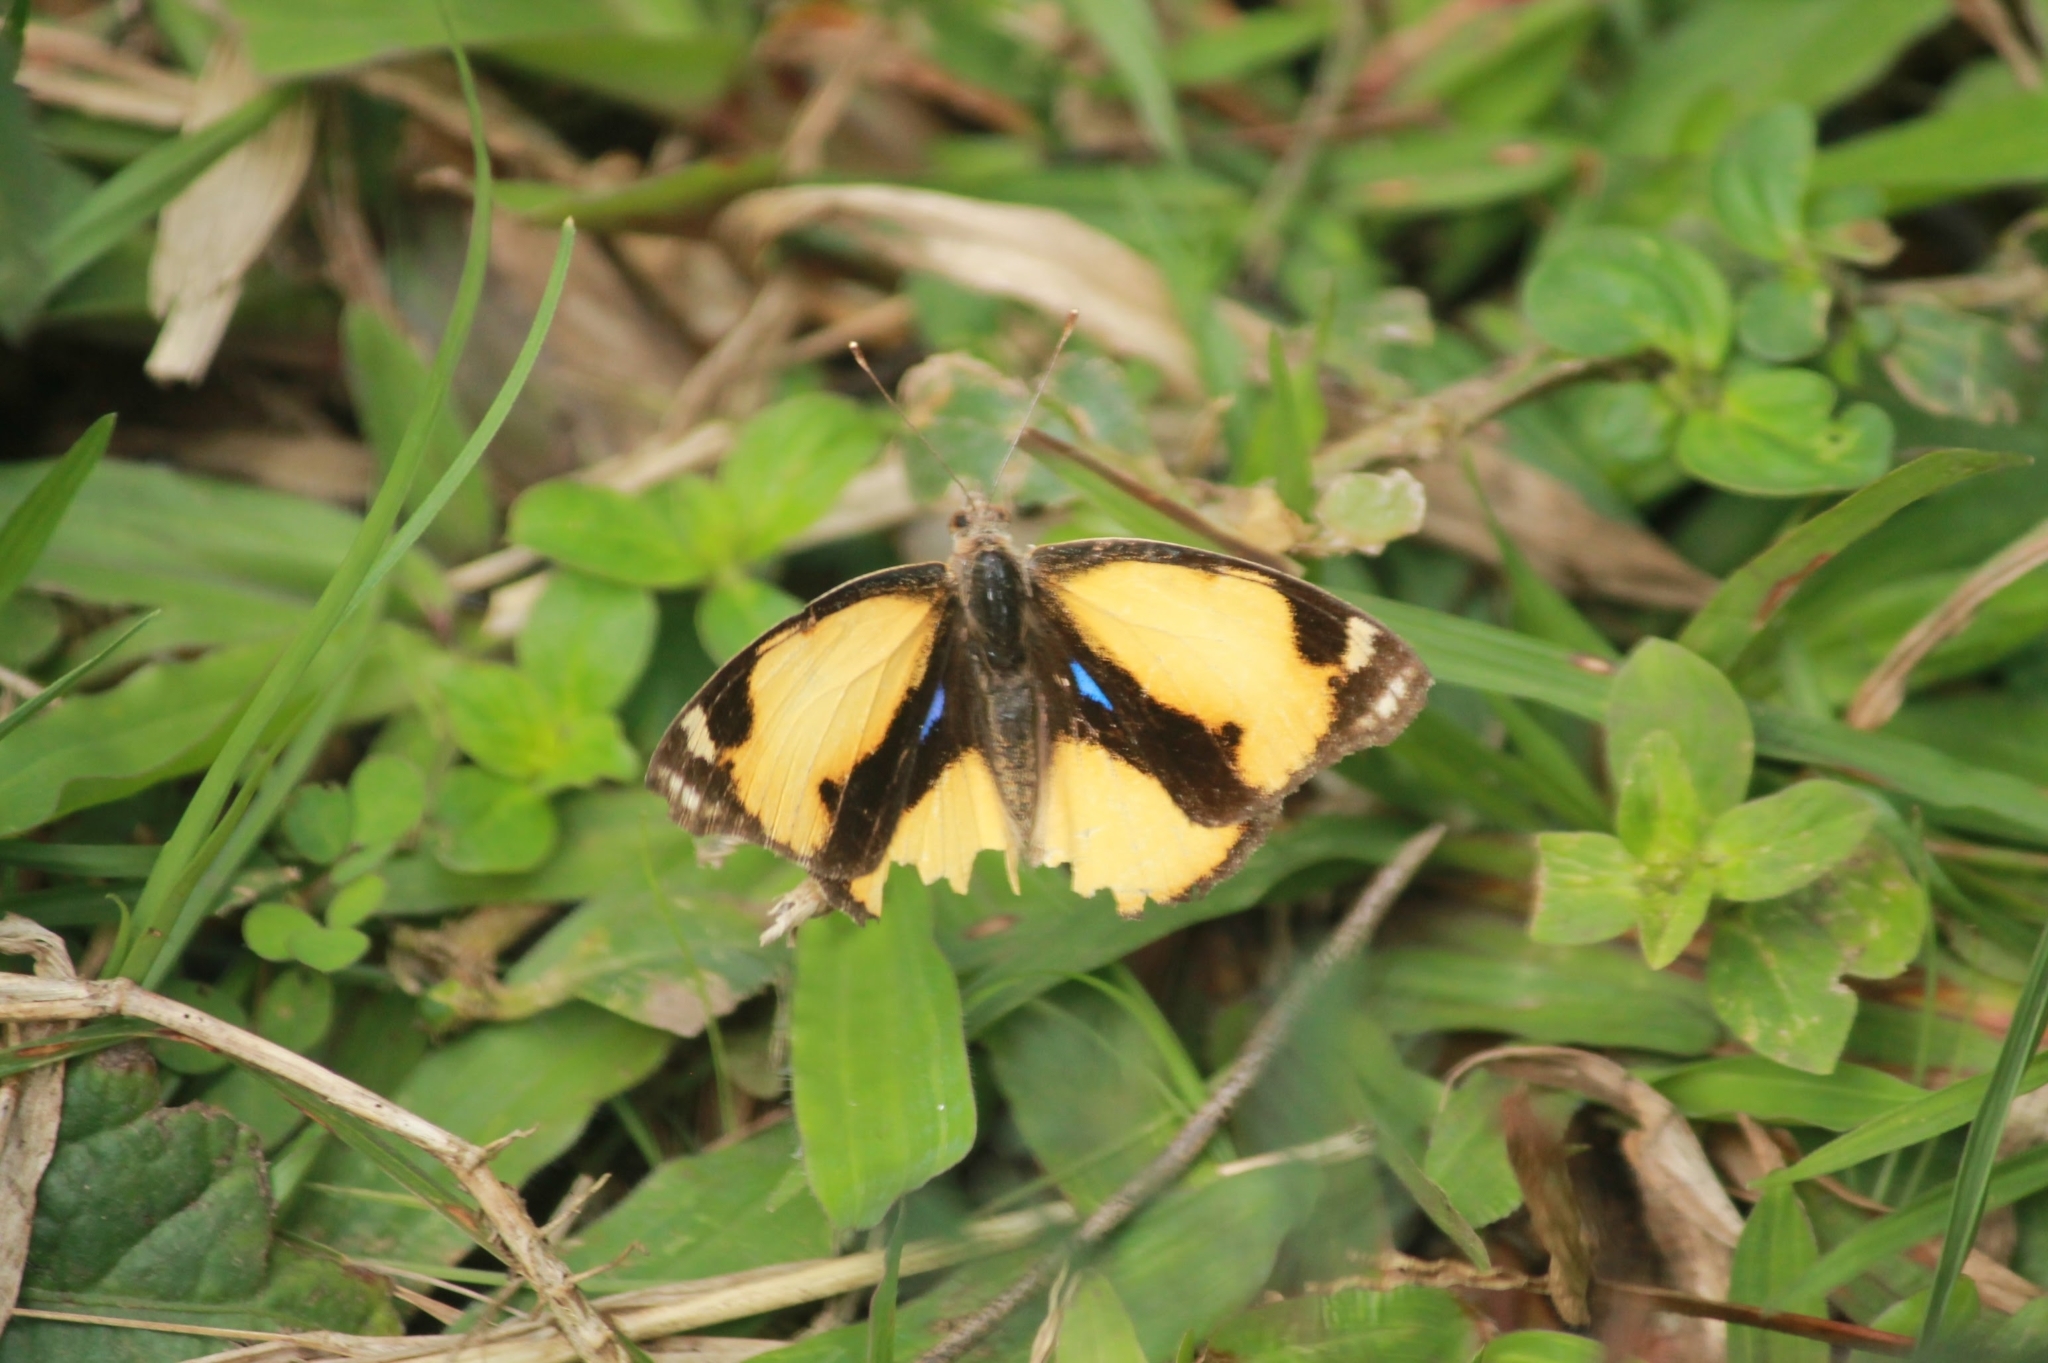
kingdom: Animalia
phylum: Arthropoda
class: Insecta
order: Lepidoptera
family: Nymphalidae
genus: Junonia
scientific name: Junonia hierta
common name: Yellow pansy
